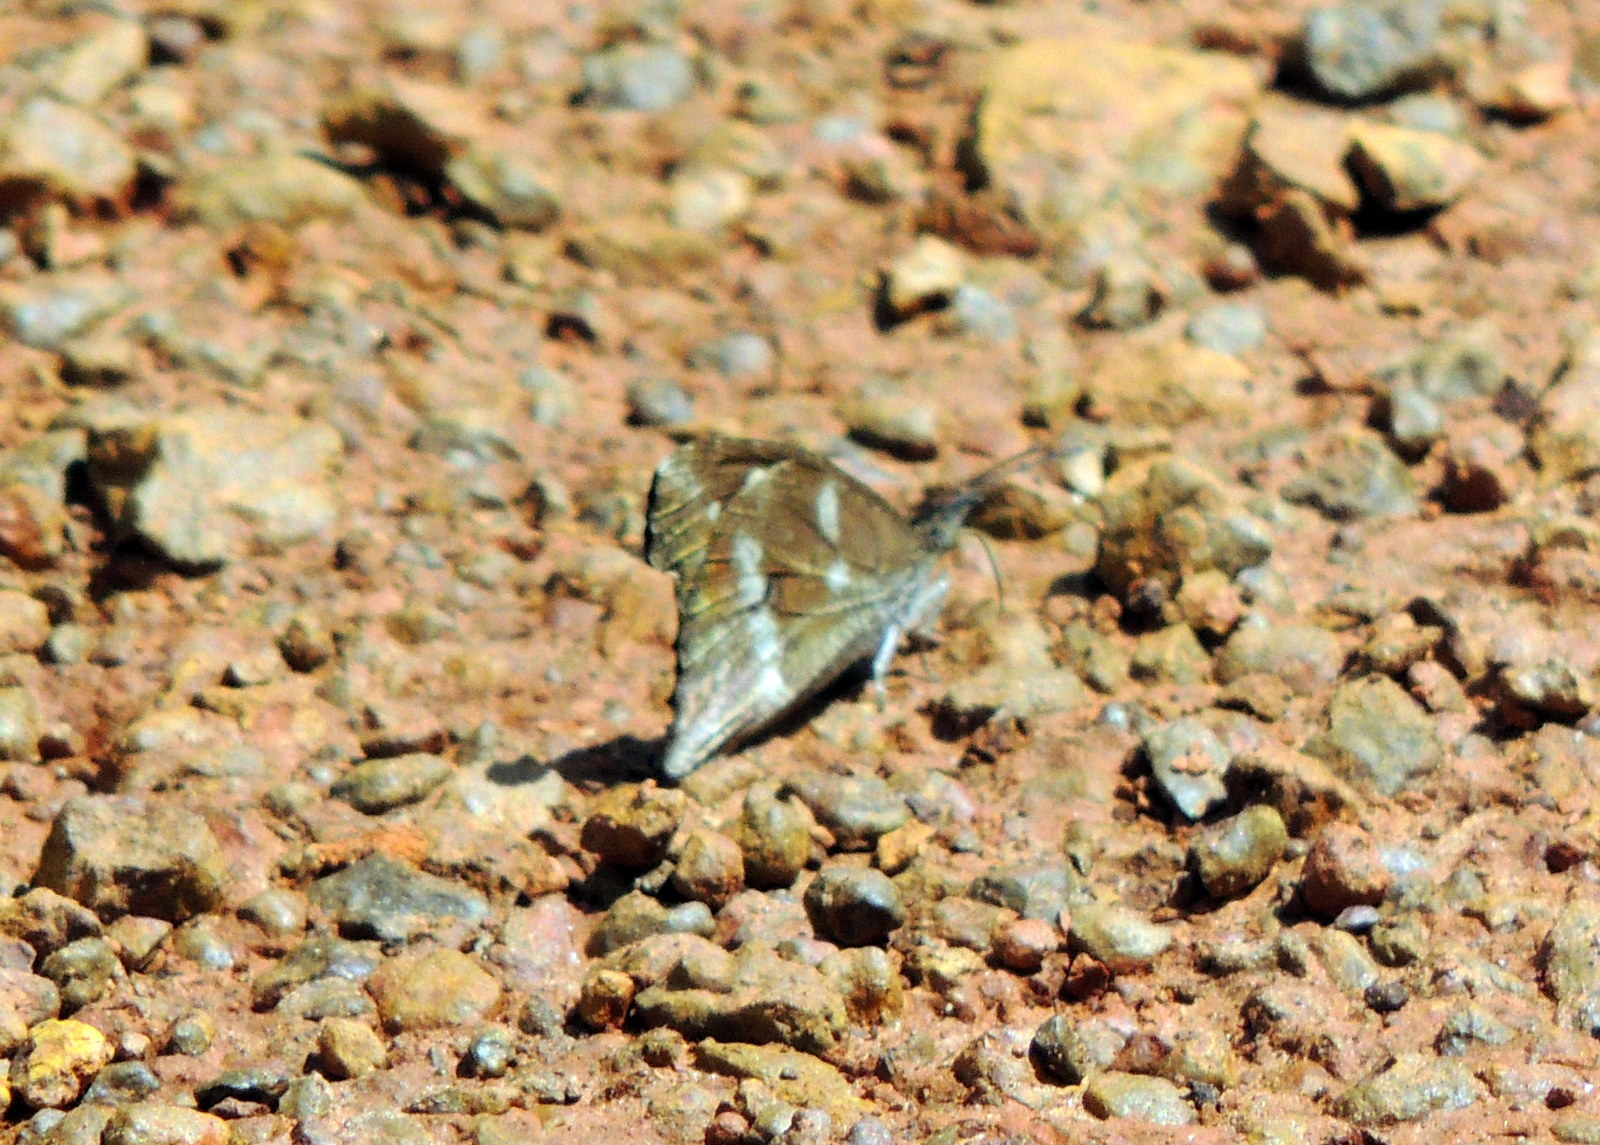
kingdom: Animalia
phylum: Arthropoda
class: Insecta
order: Lepidoptera
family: Nymphalidae
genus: Libythea
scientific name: Libythea labdaca
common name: Northern african snout
